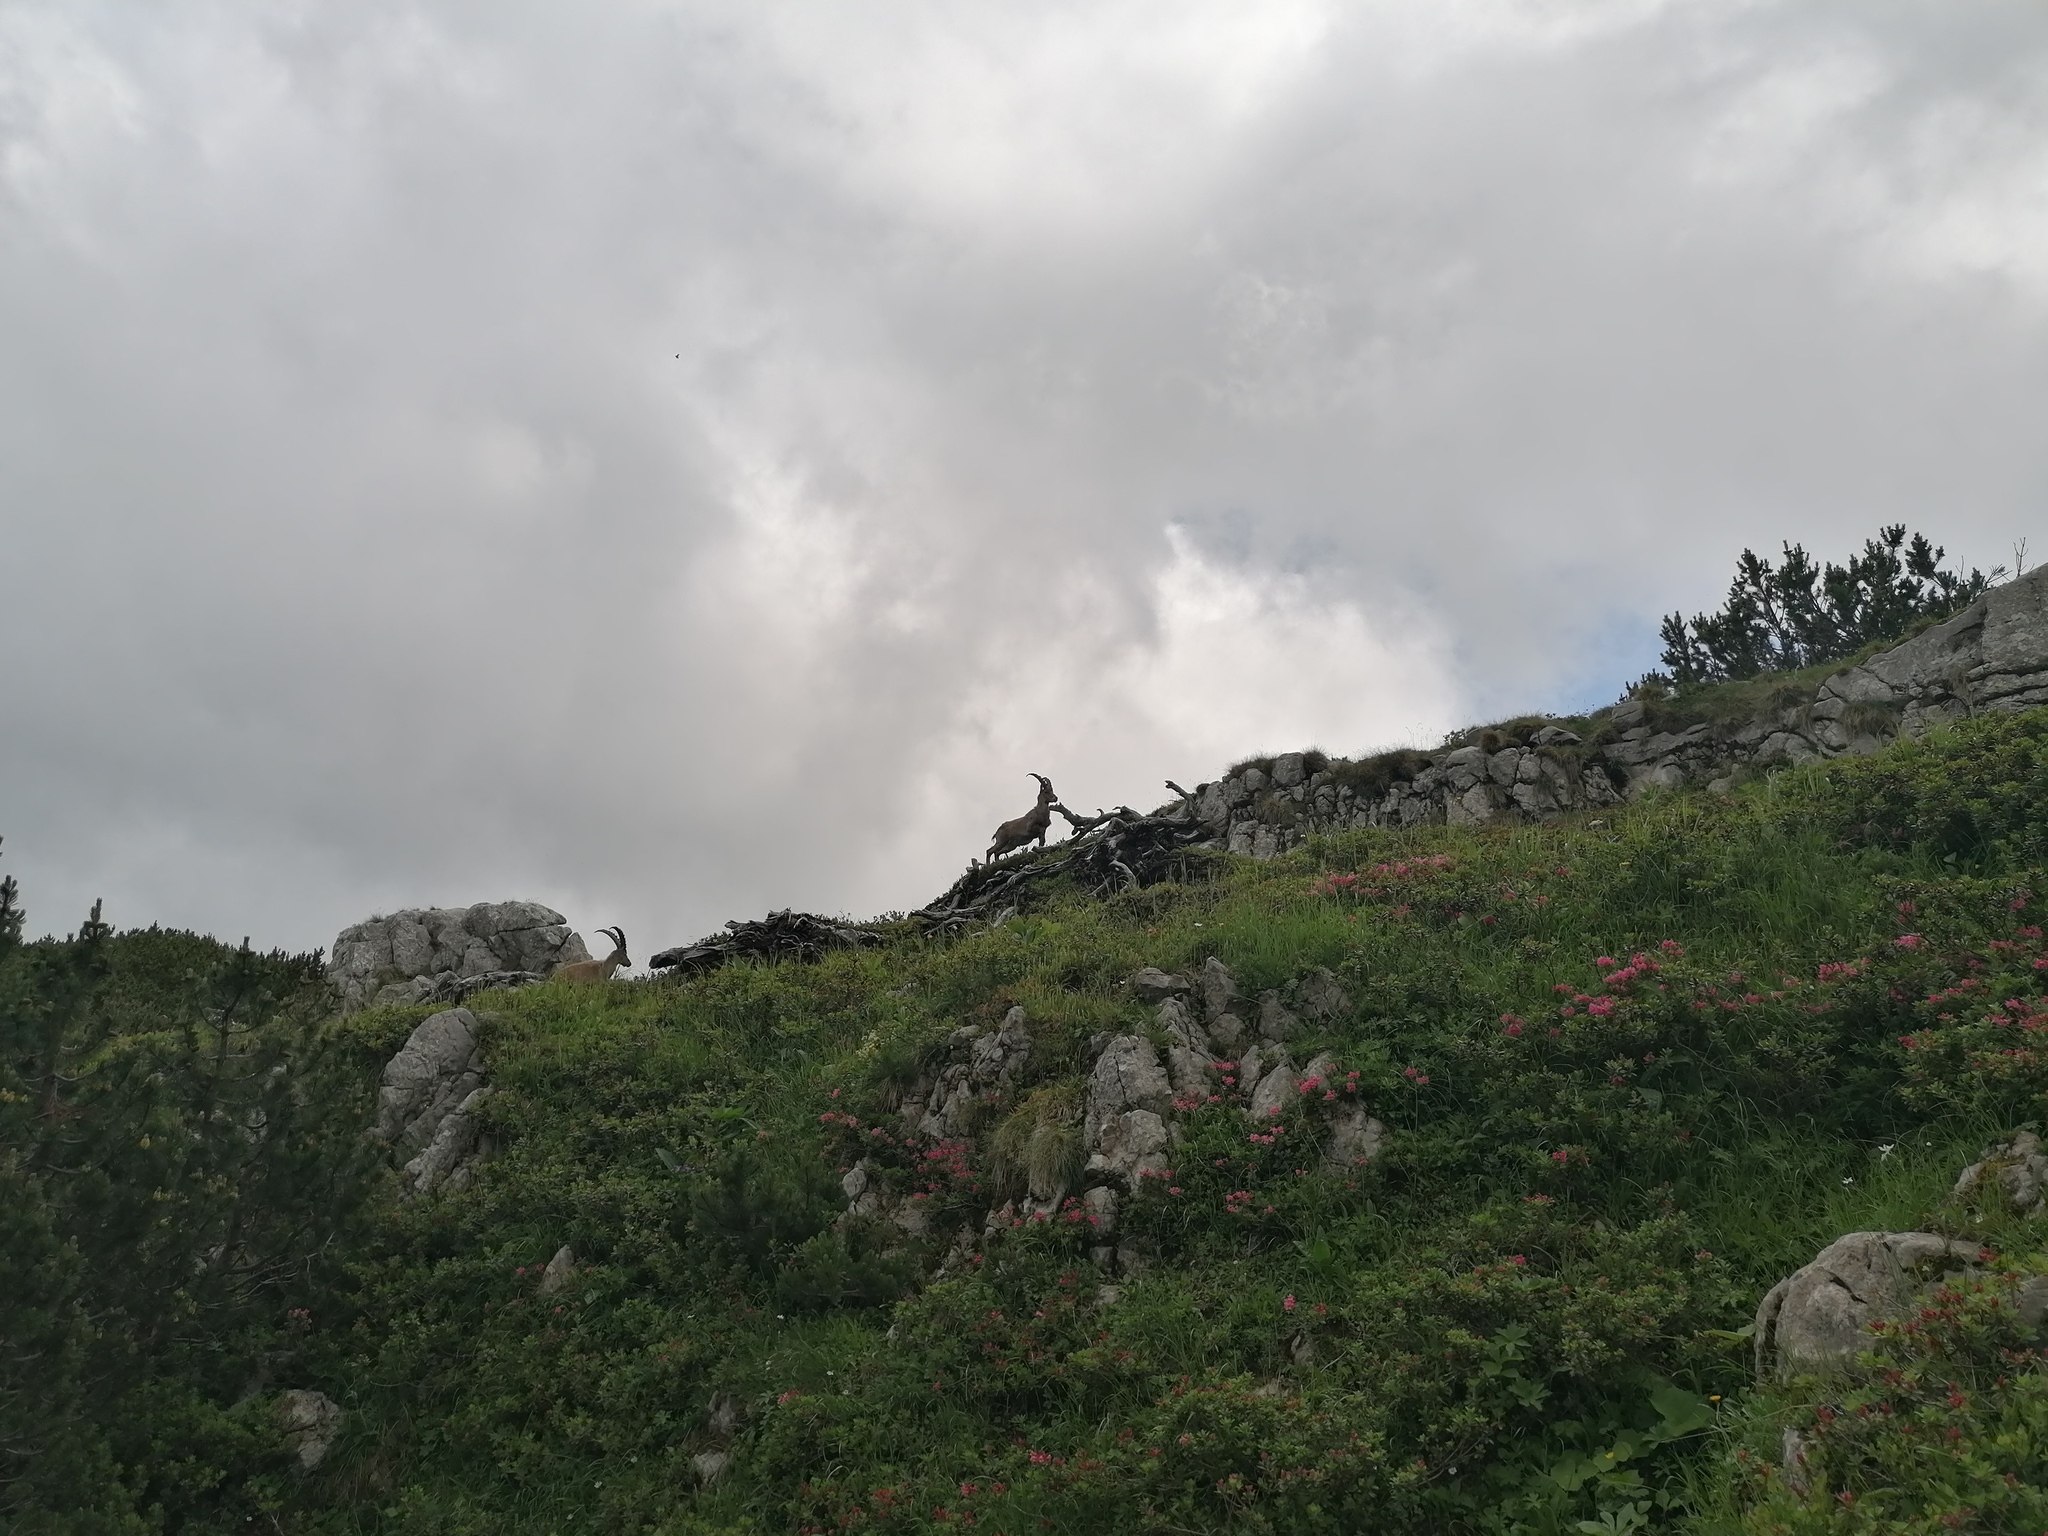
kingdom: Animalia
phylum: Chordata
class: Mammalia
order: Artiodactyla
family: Bovidae
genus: Capra
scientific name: Capra ibex
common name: Alpine ibex
